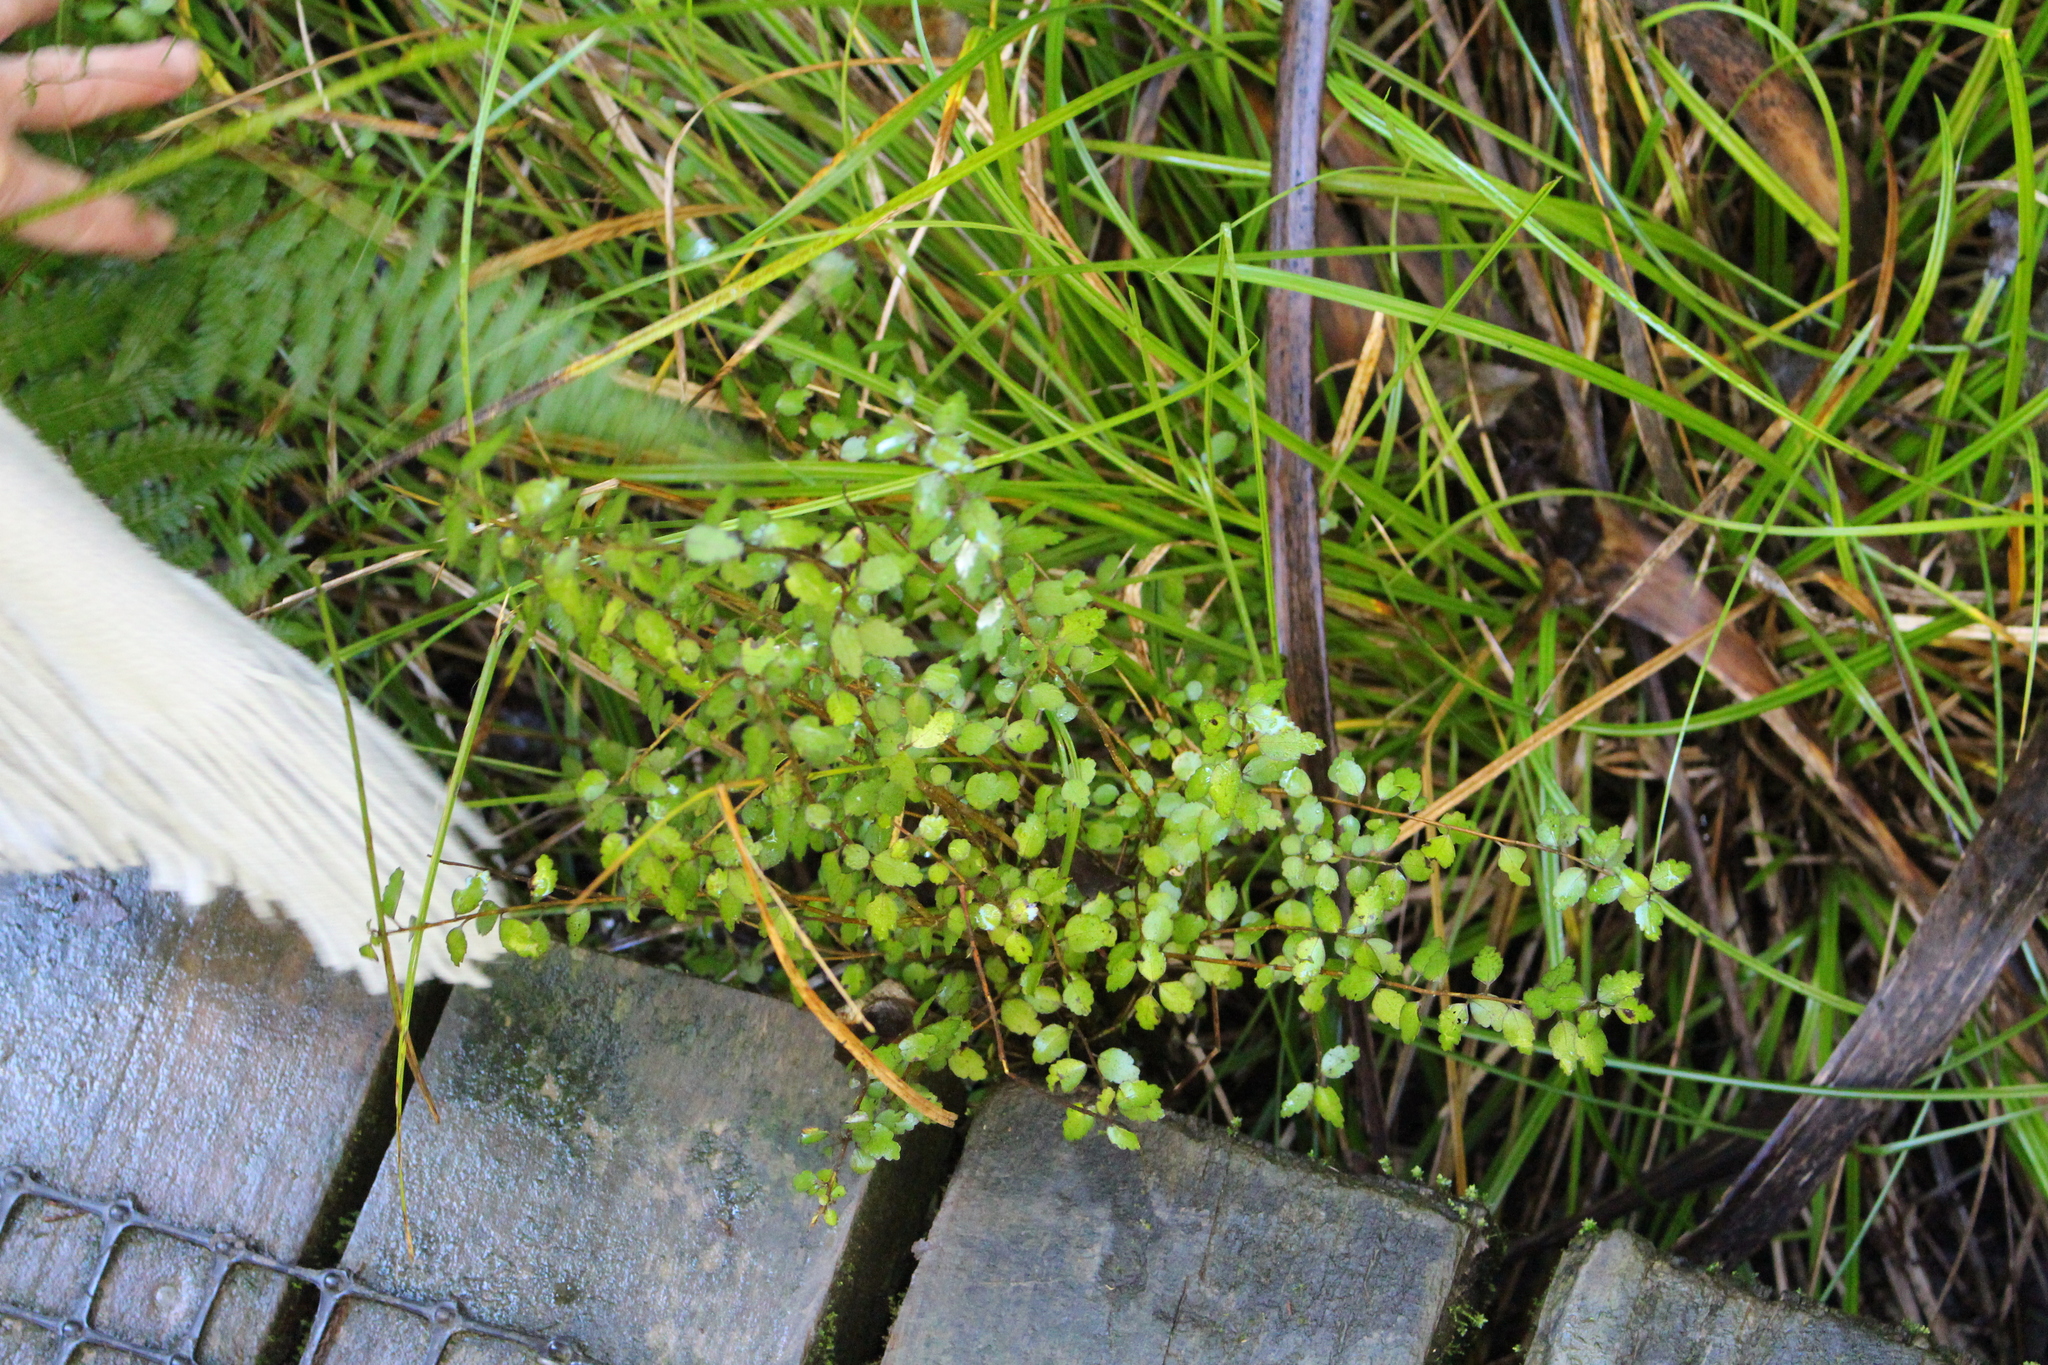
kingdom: Plantae
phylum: Tracheophyta
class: Magnoliopsida
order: Malvales
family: Malvaceae
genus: Plagianthus
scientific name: Plagianthus cymosus
